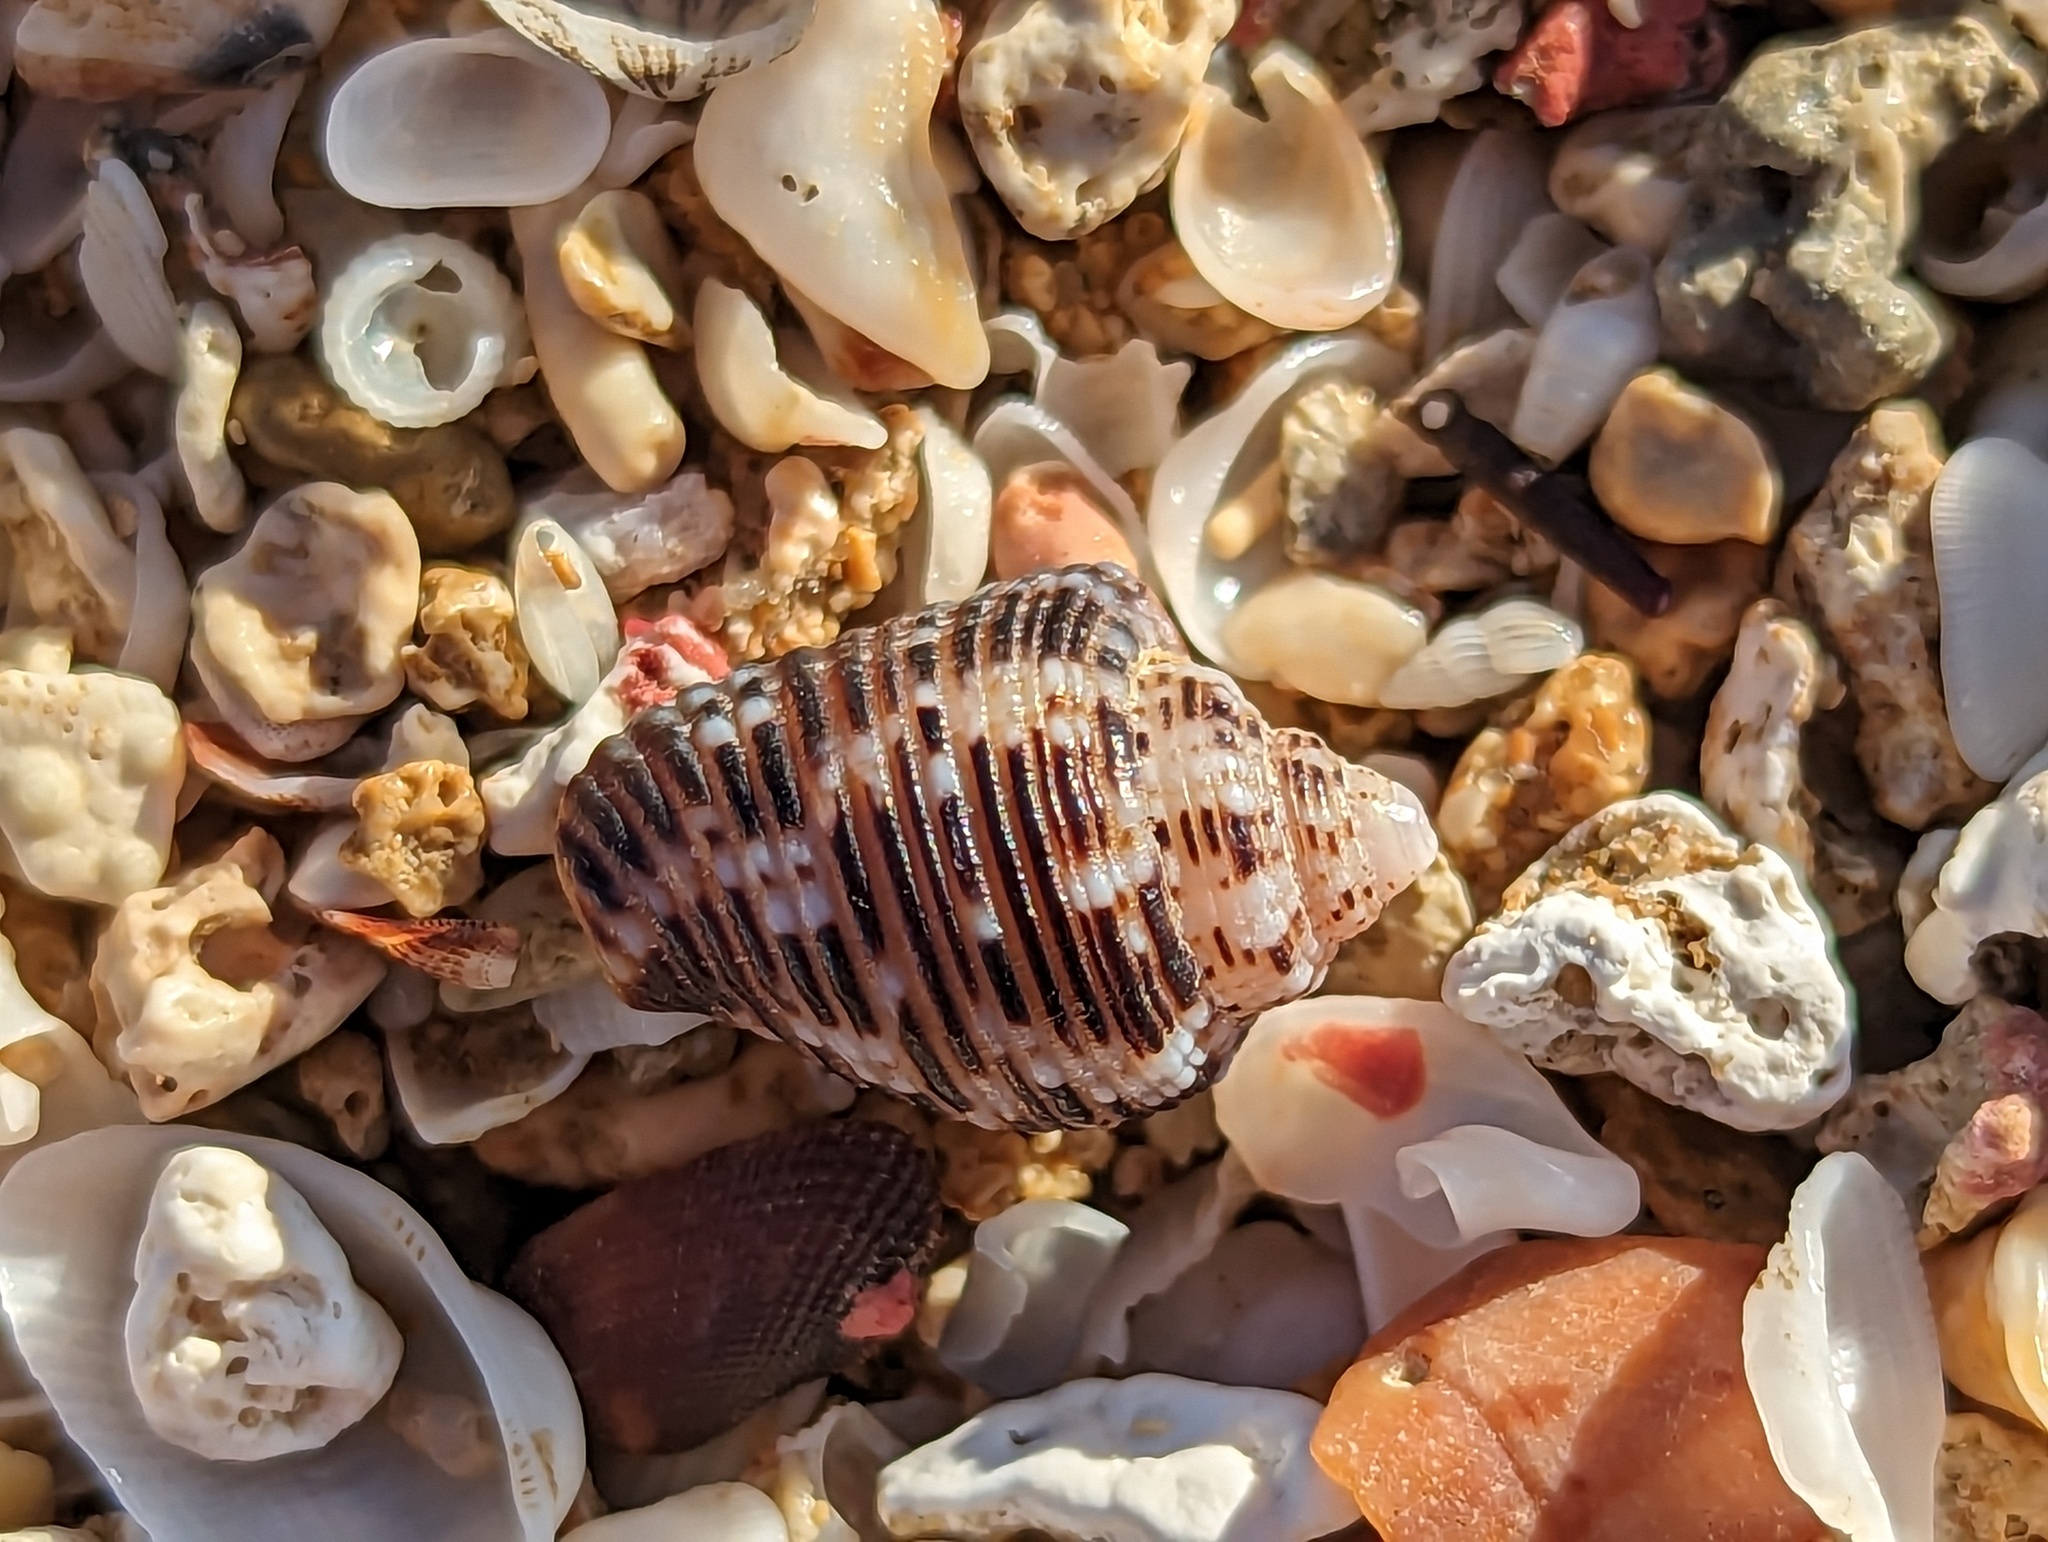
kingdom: Animalia
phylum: Mollusca
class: Gastropoda
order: Neogastropoda
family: Columbellidae
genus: Columbella
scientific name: Columbella mercatoria
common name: West indian dovesnail
